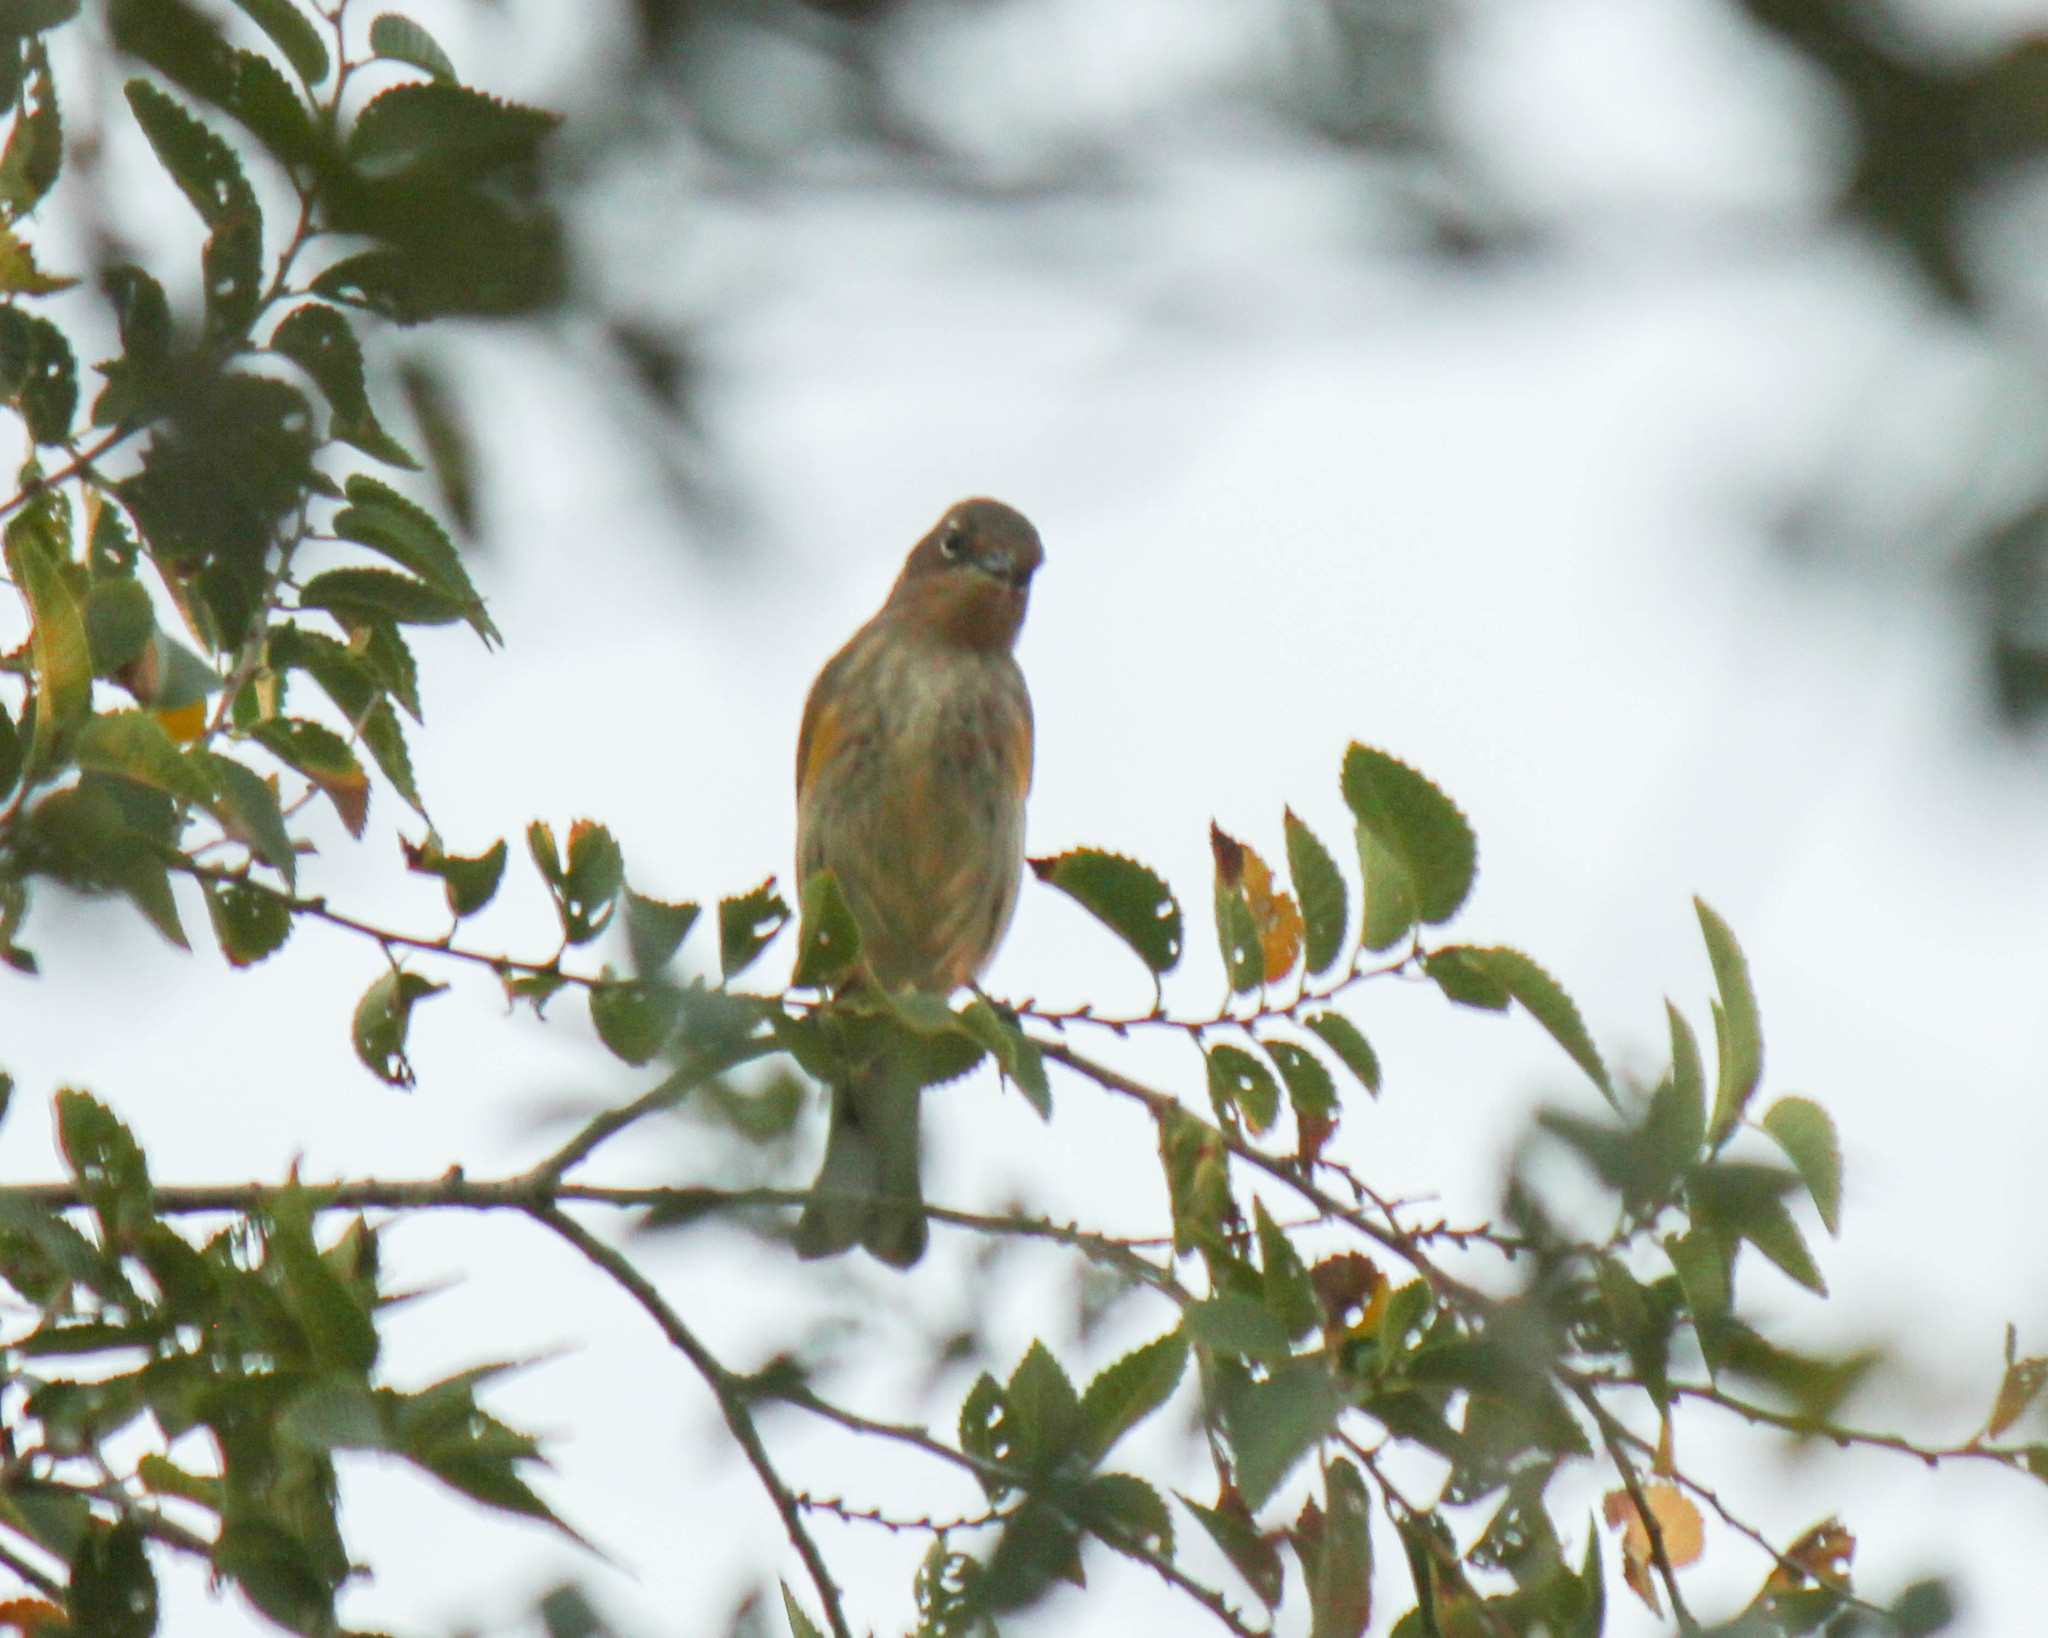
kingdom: Animalia
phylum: Chordata
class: Aves
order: Passeriformes
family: Parulidae
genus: Setophaga
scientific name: Setophaga coronata
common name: Myrtle warbler
